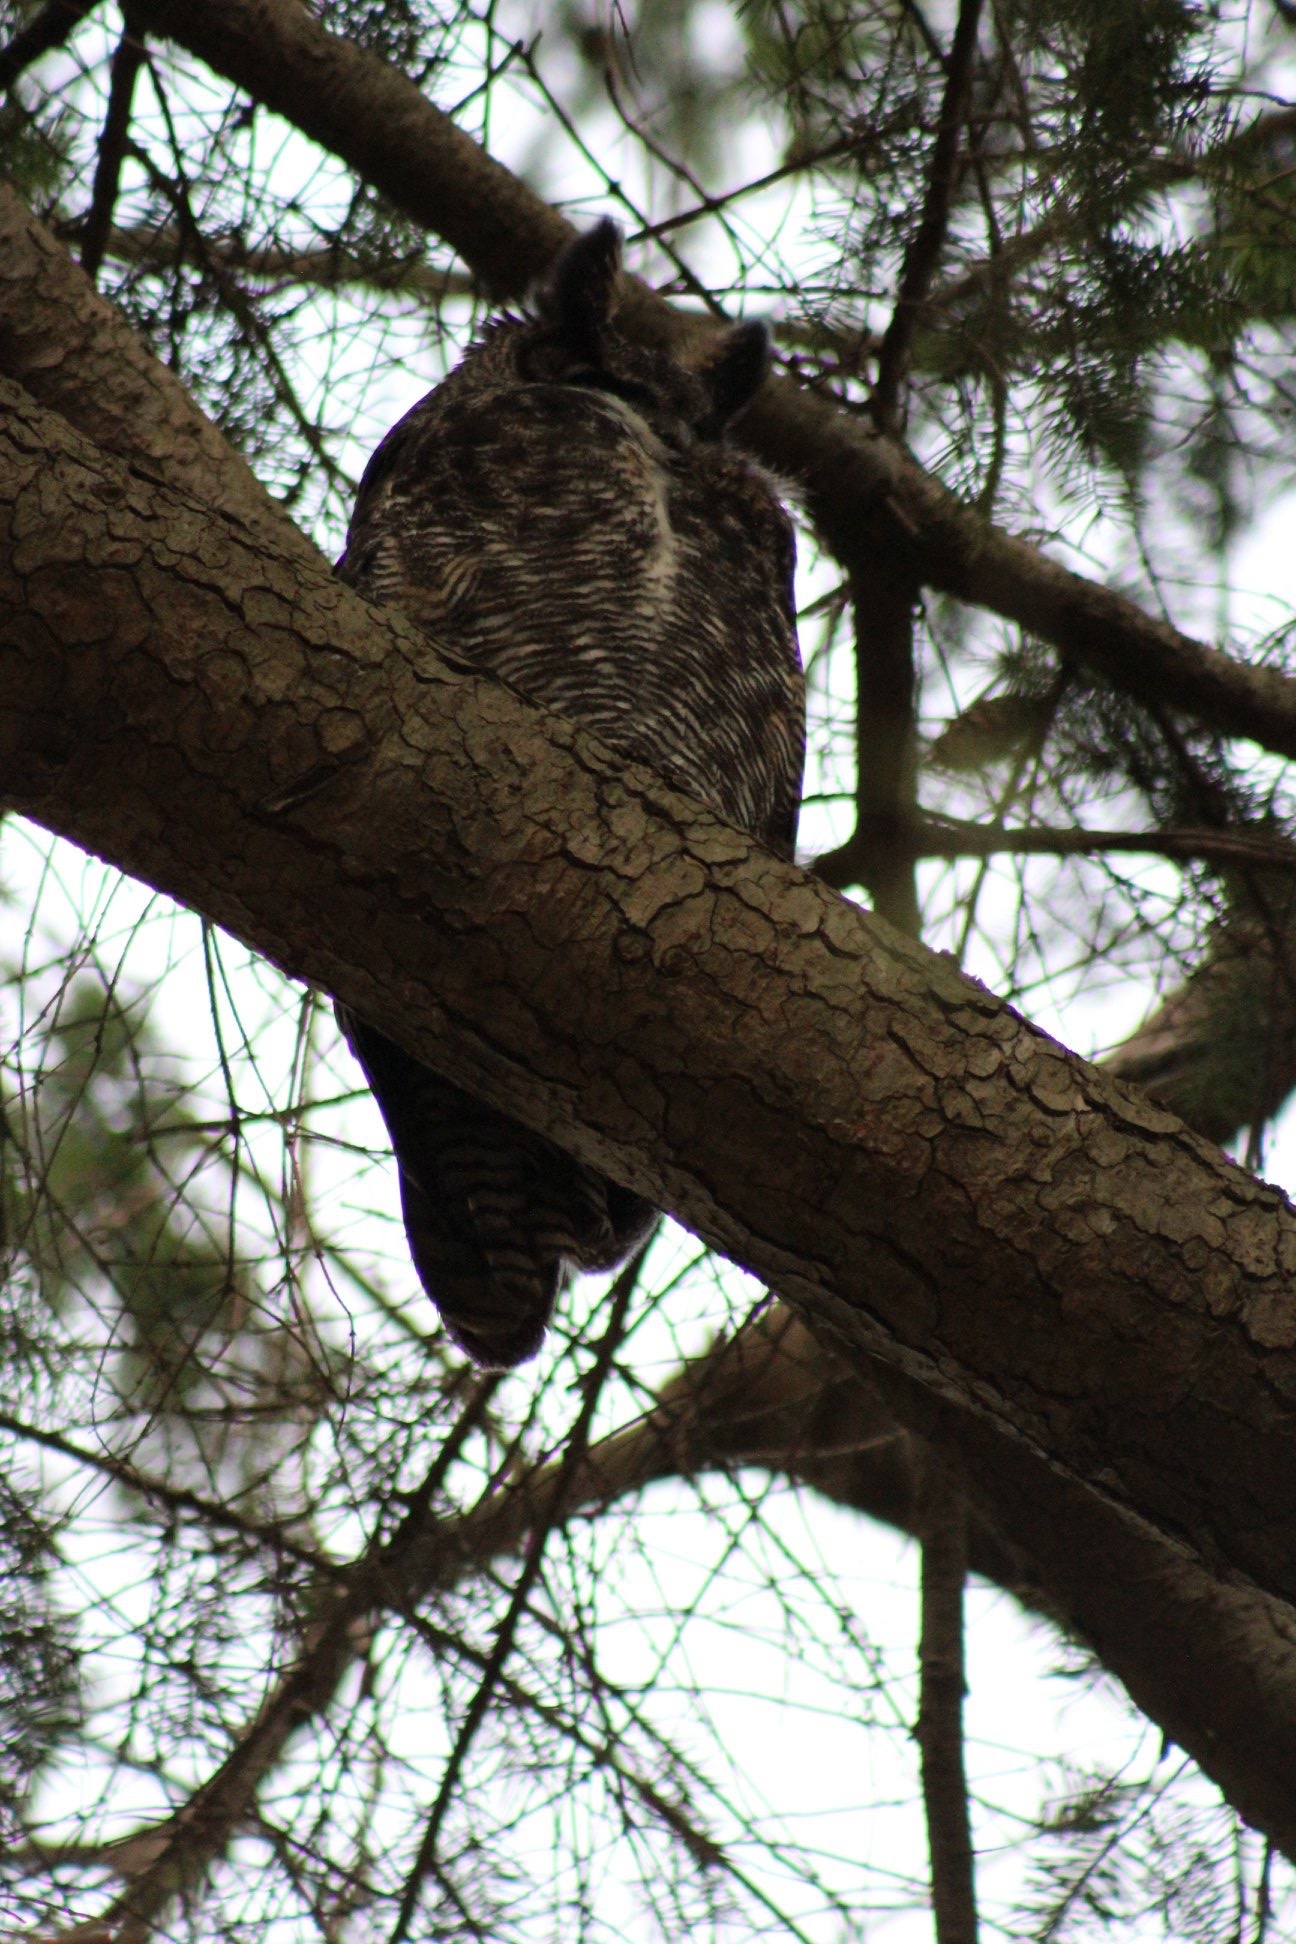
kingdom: Animalia
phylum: Chordata
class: Aves
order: Strigiformes
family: Strigidae
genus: Bubo
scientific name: Bubo virginianus
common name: Great horned owl
